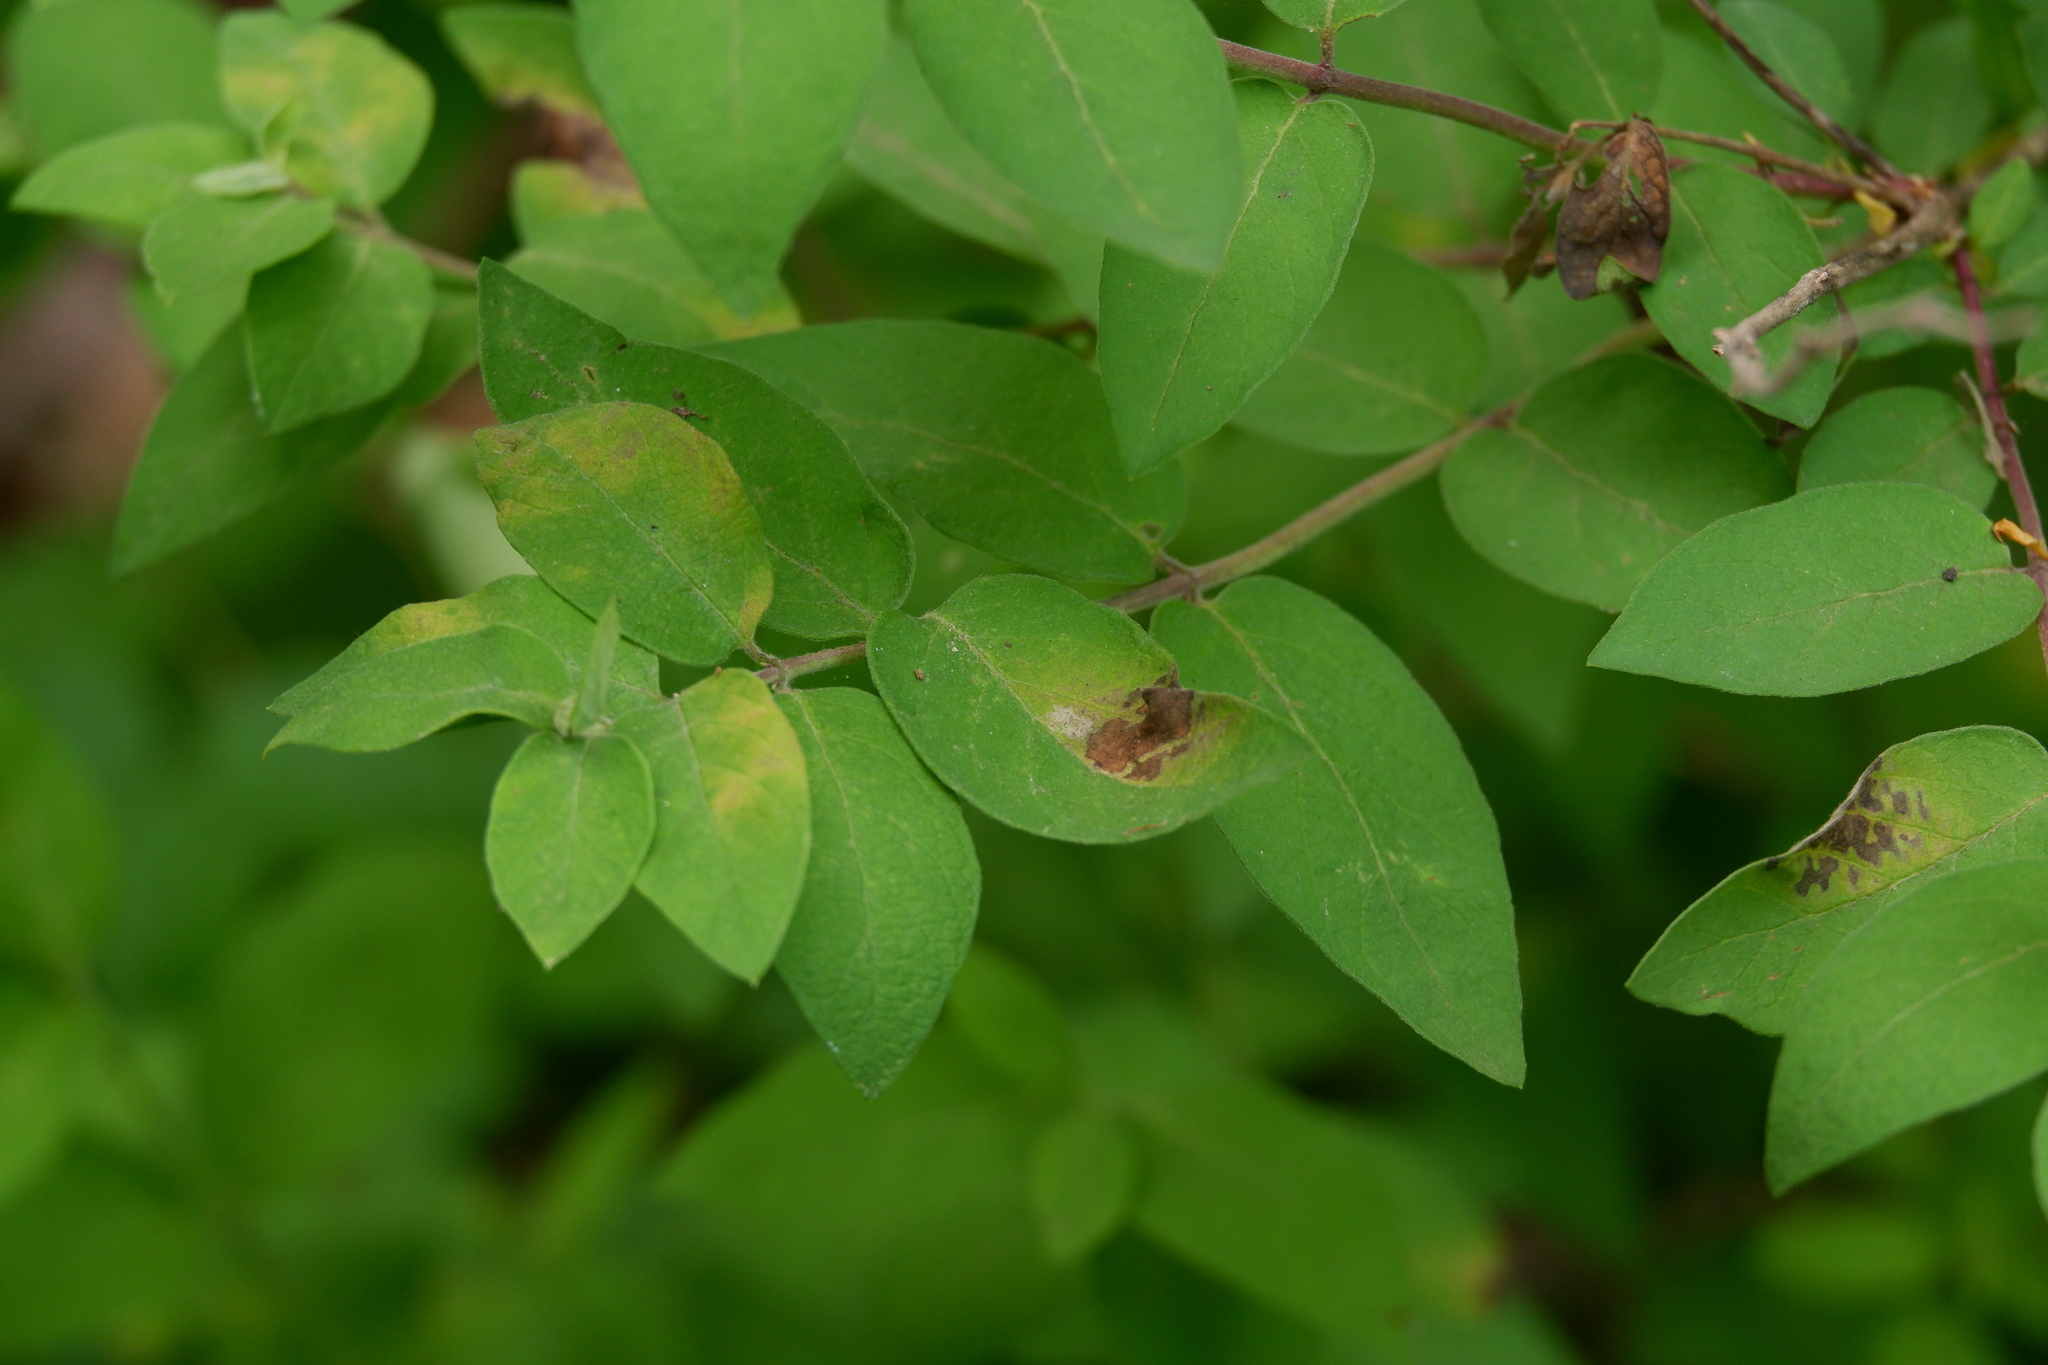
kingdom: Fungi
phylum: Basidiomycota
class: Pucciniomycetes
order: Platygloeales
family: Platygloeaceae
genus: Insolibasidium
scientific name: Insolibasidium deformans
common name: Honeysuckle leaf blight
